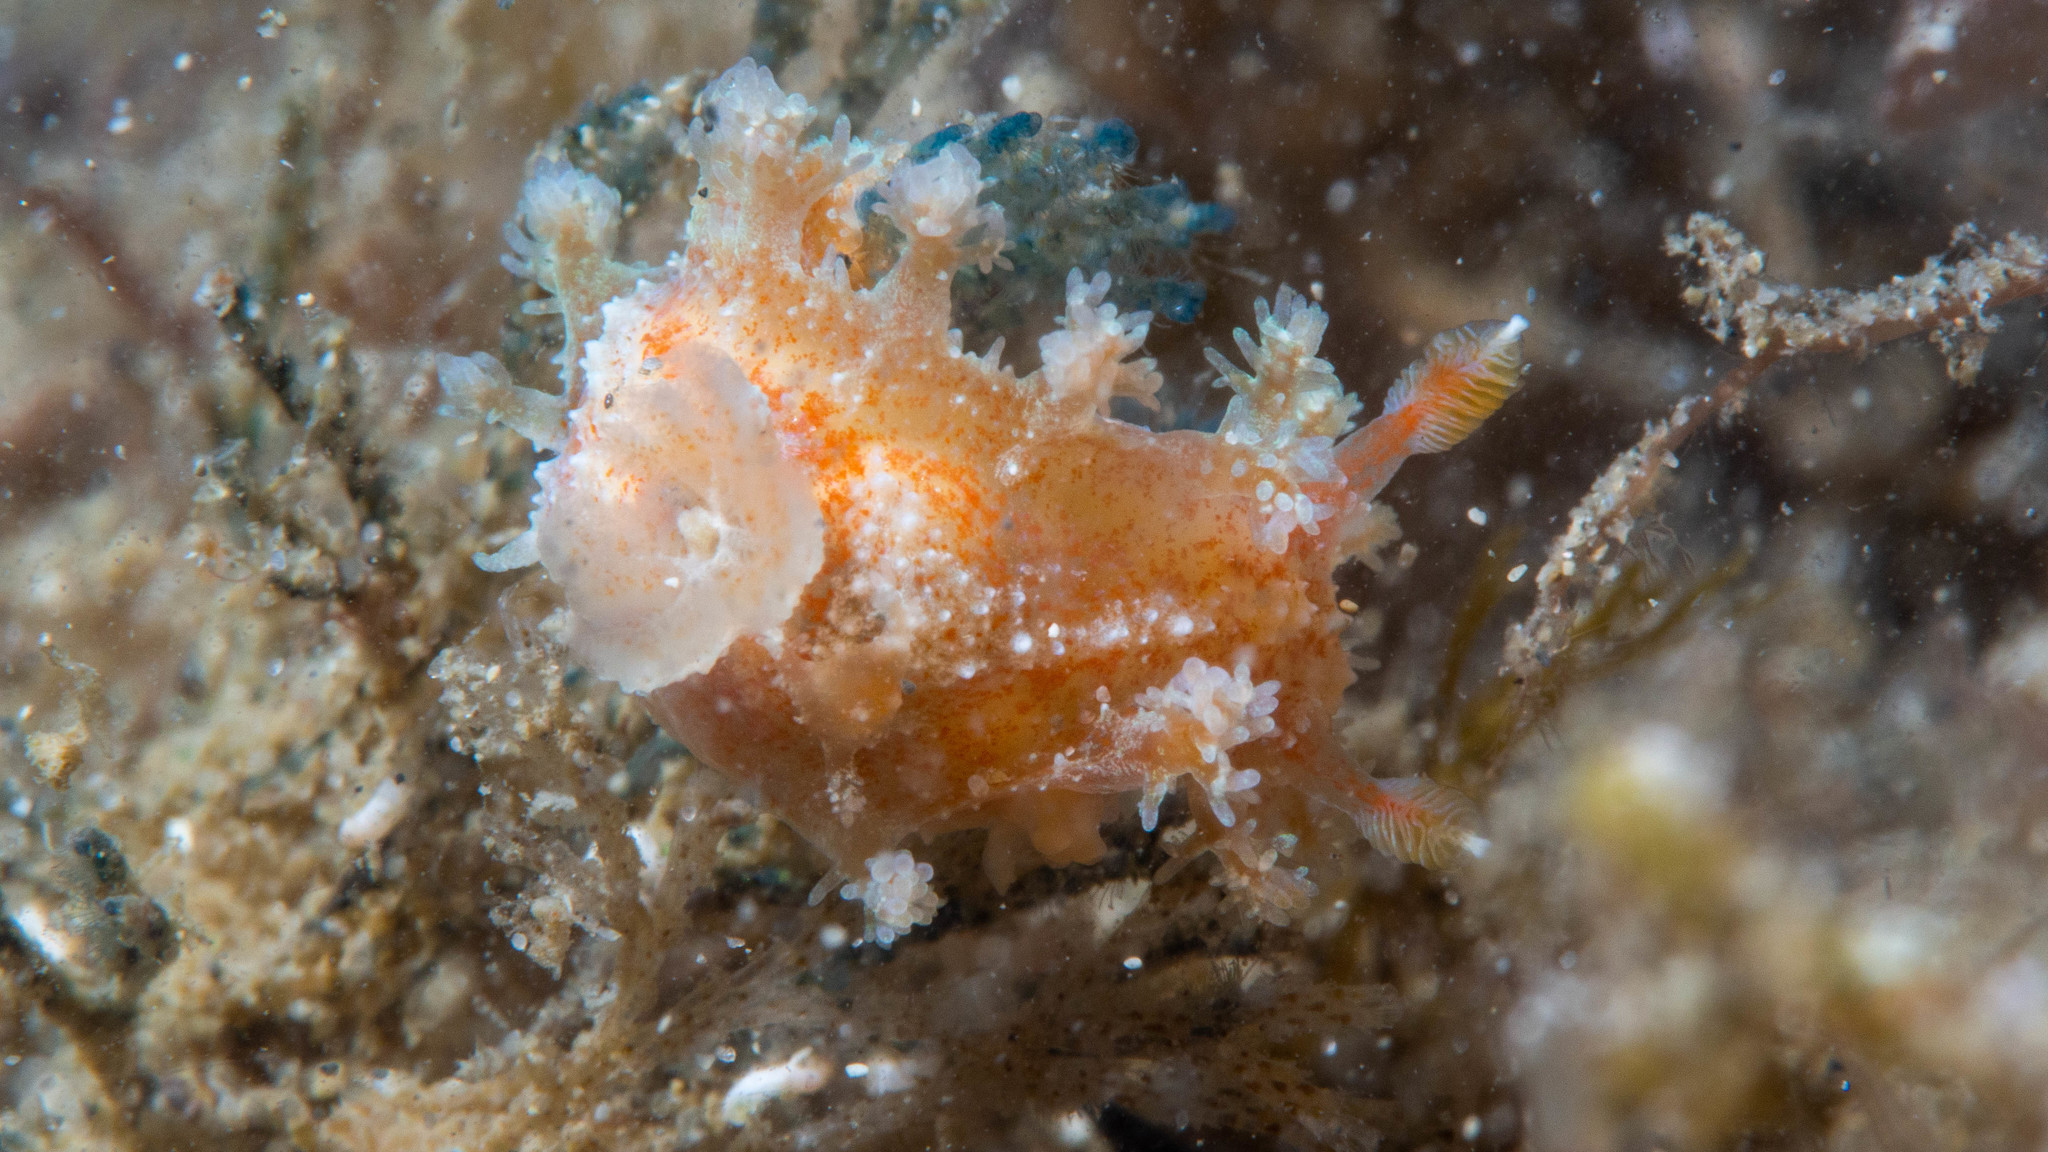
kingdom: Animalia
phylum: Mollusca
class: Gastropoda
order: Nudibranchia
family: Polyceridae
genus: Kaloplocamus
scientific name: Kaloplocamus ramosus
